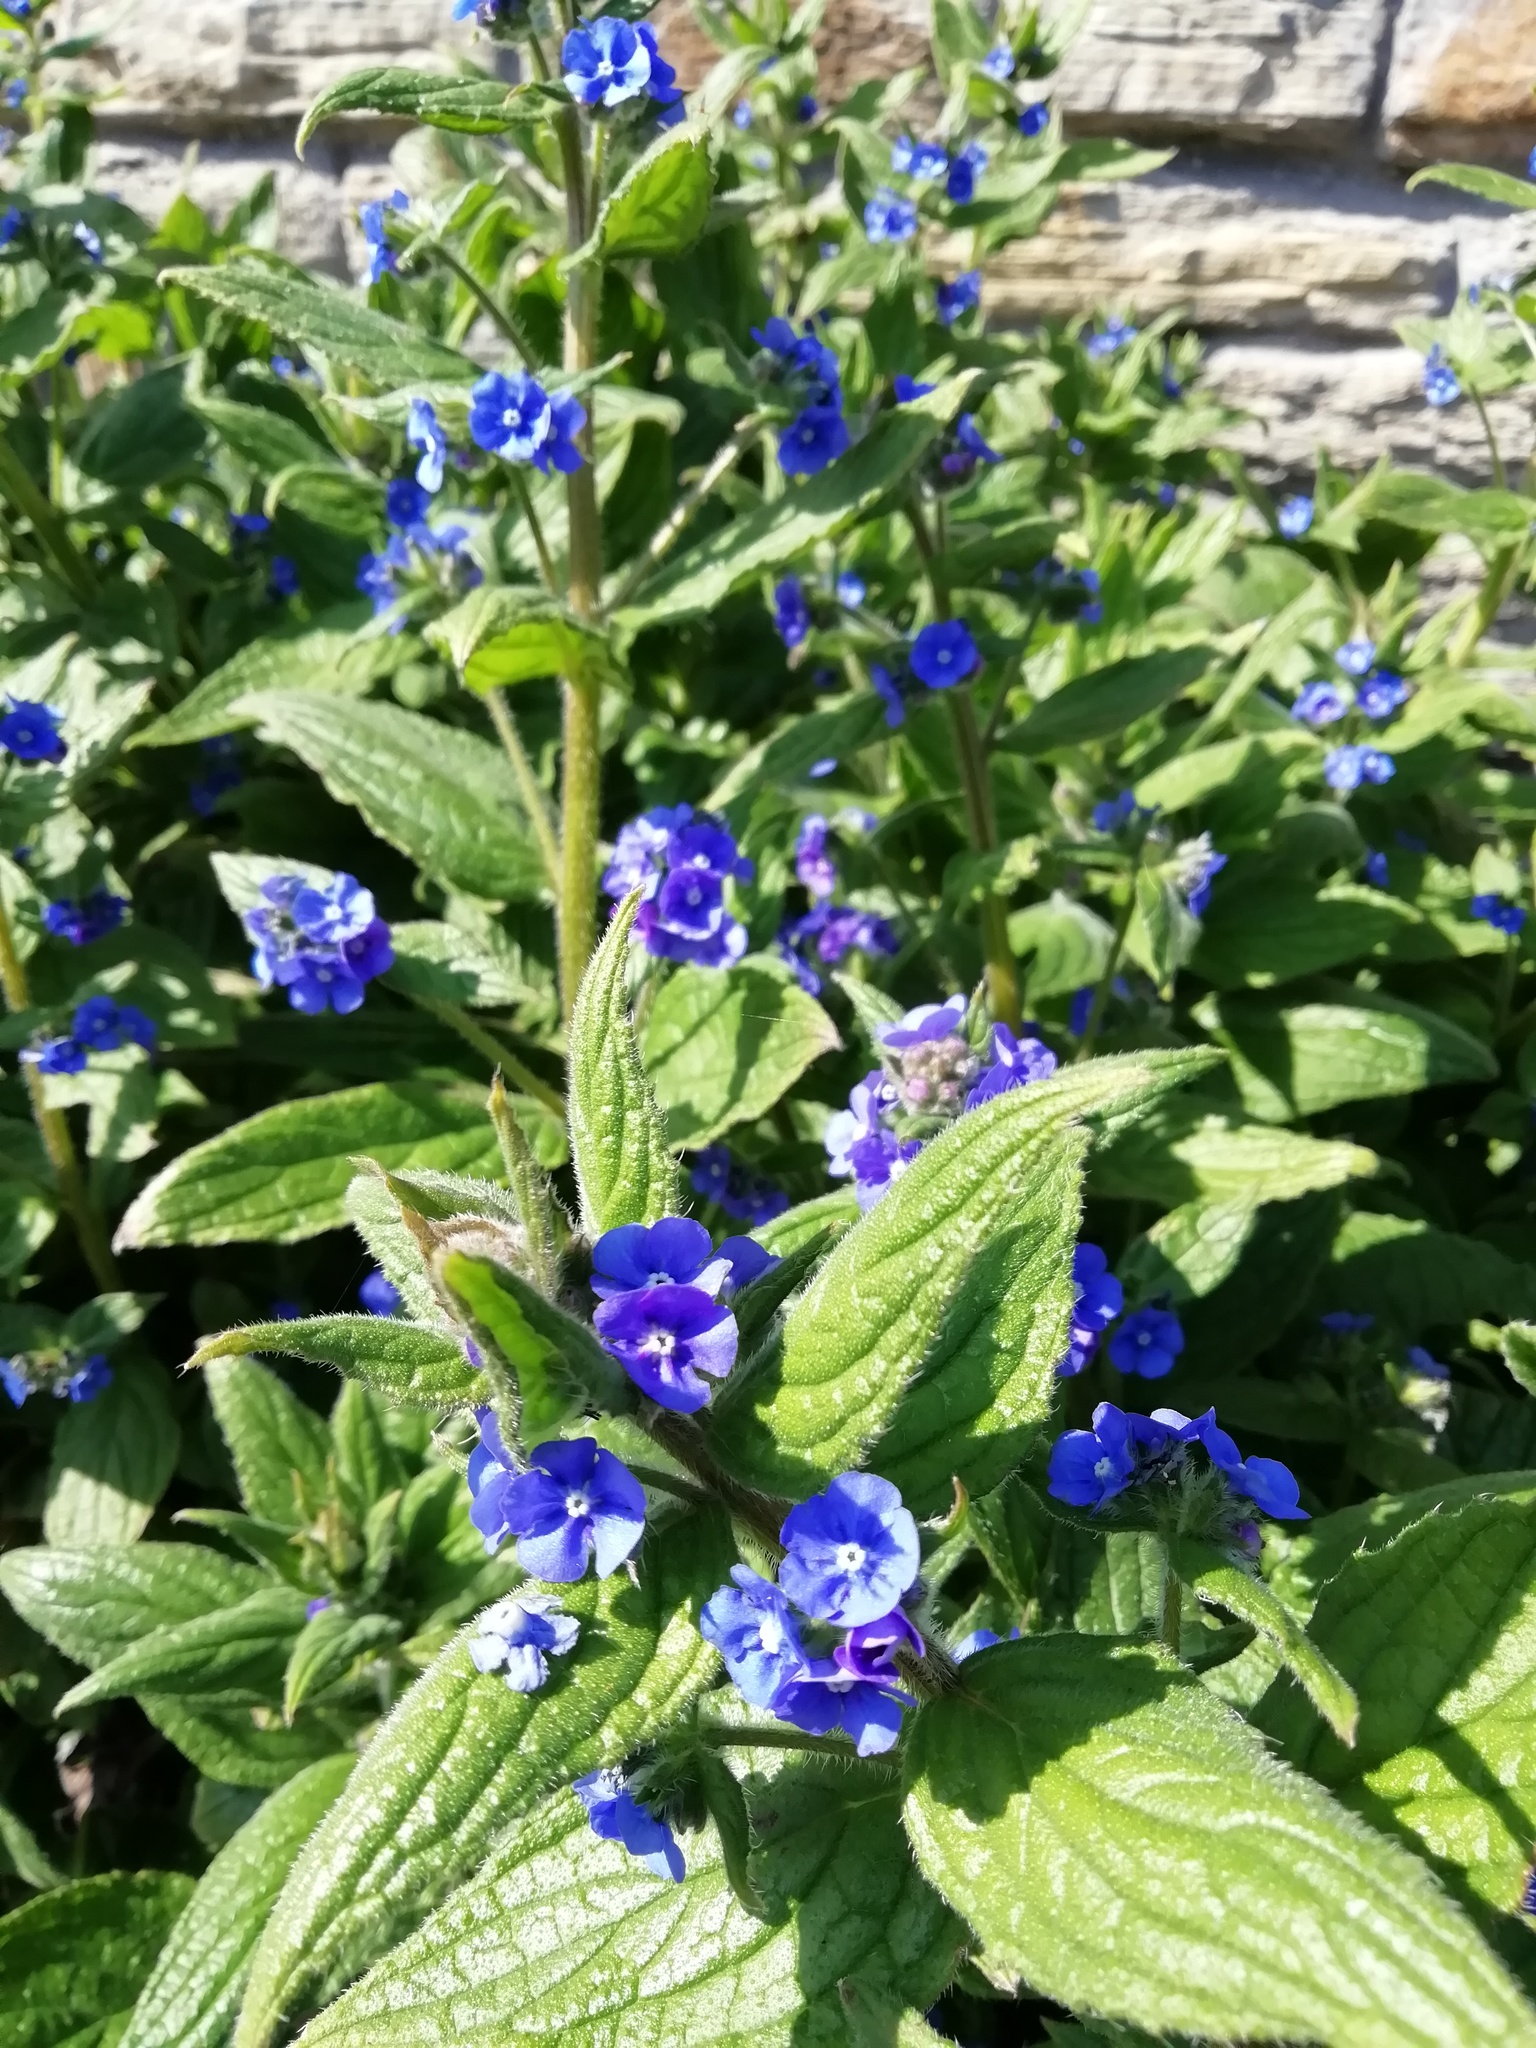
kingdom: Plantae
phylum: Tracheophyta
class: Magnoliopsida
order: Boraginales
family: Boraginaceae
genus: Pentaglottis
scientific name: Pentaglottis sempervirens
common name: Green alkanet
